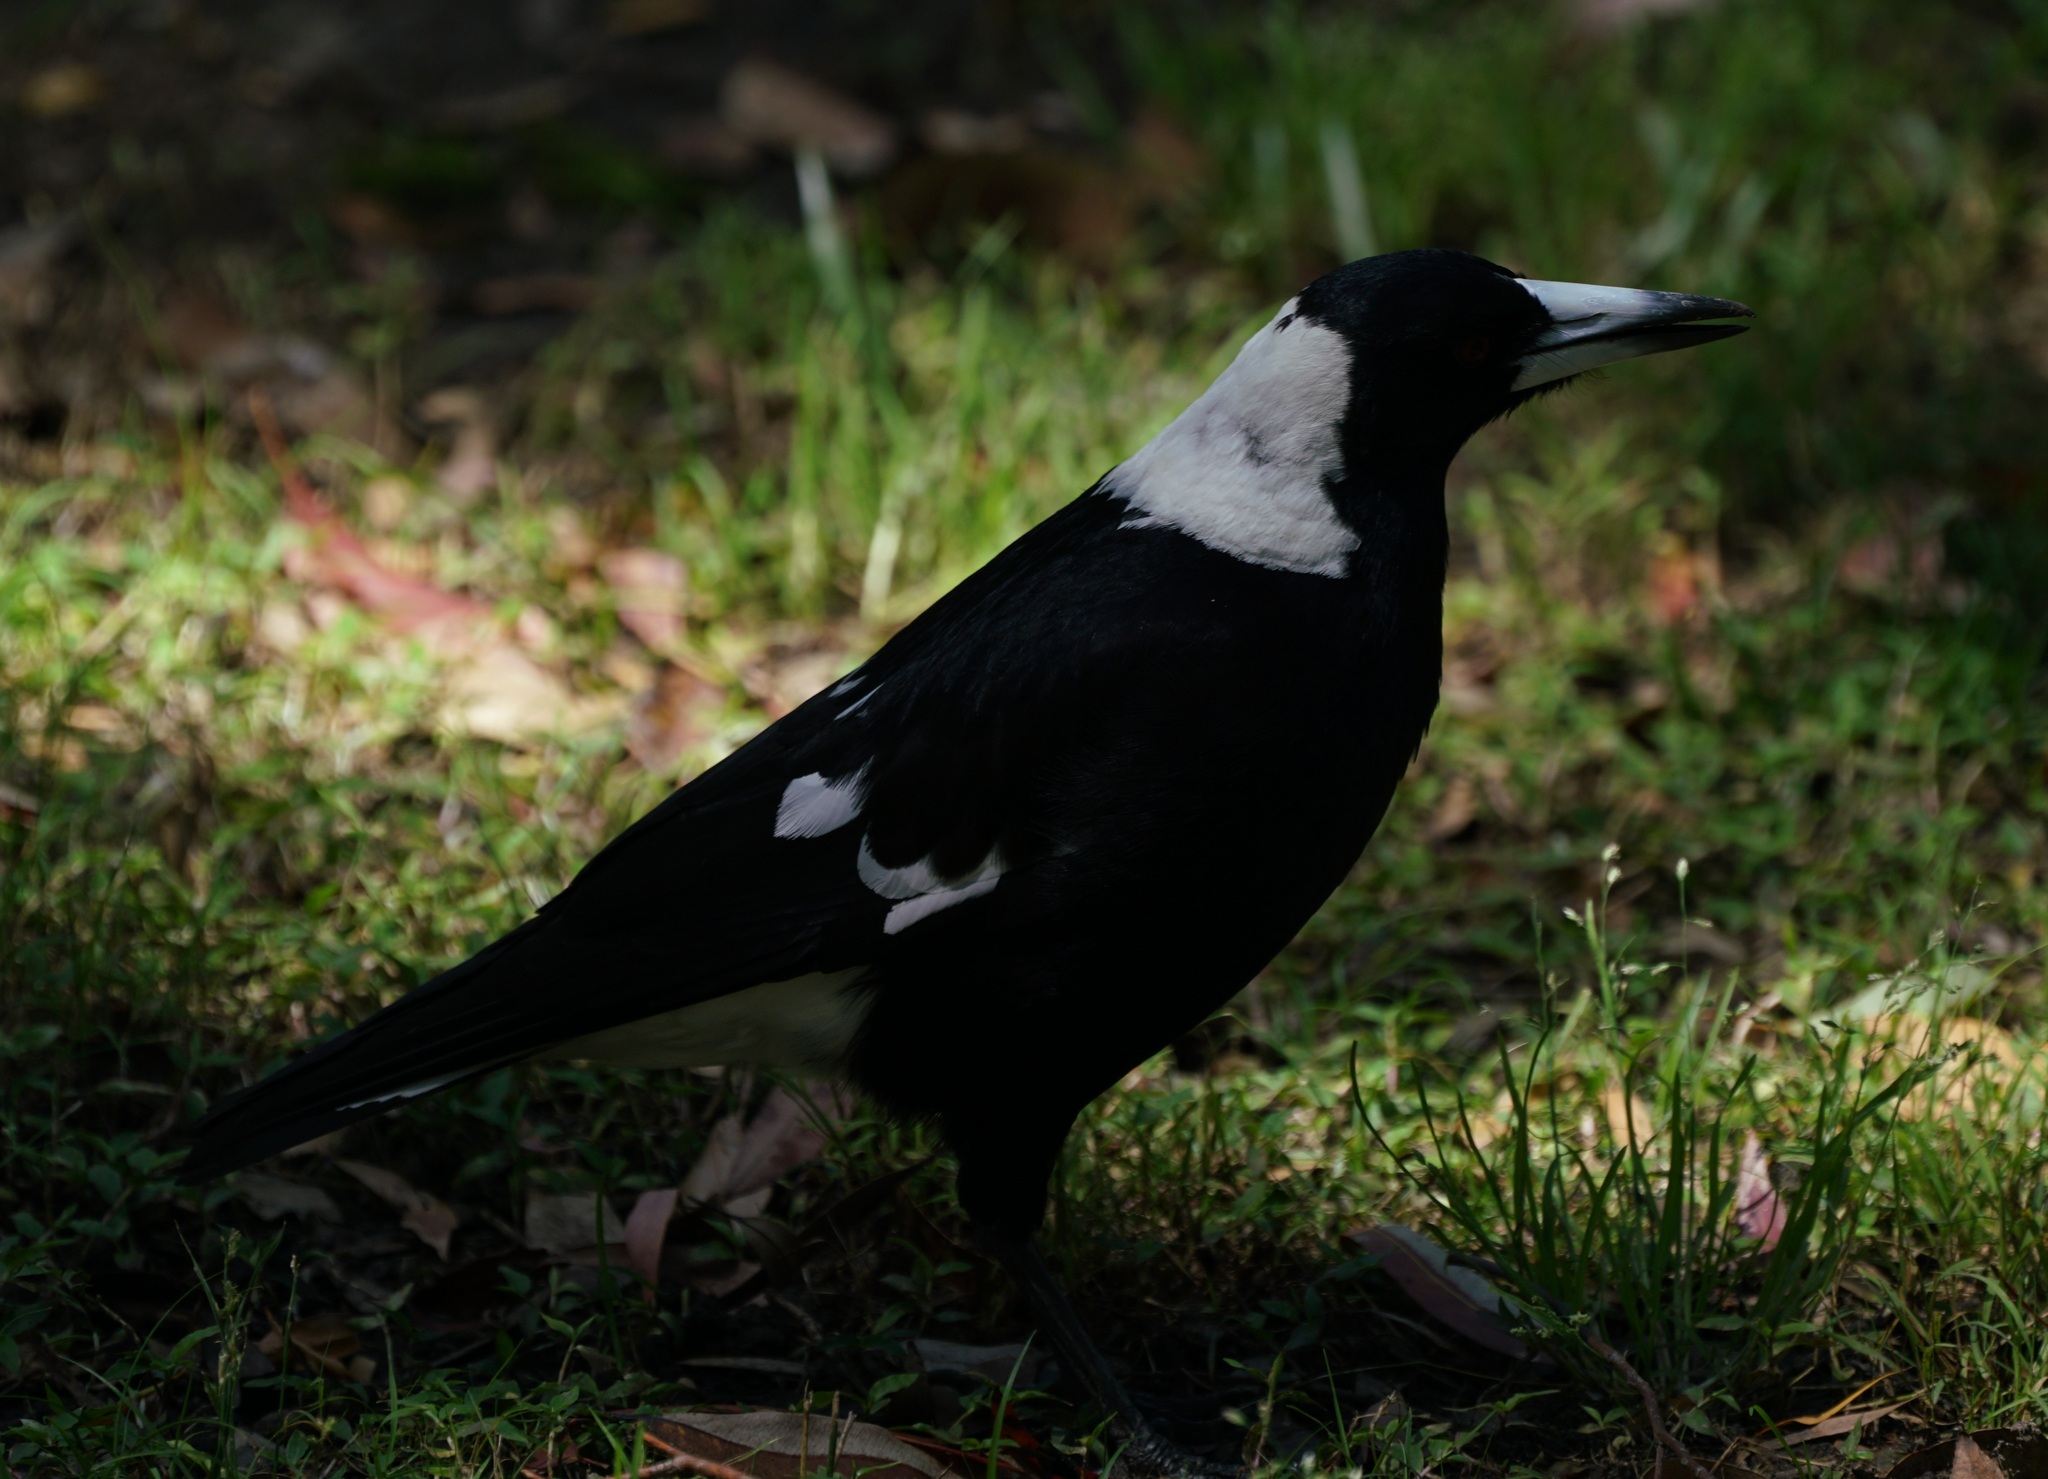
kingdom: Animalia
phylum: Chordata
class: Aves
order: Passeriformes
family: Cracticidae
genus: Gymnorhina
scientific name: Gymnorhina tibicen
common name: Australian magpie
